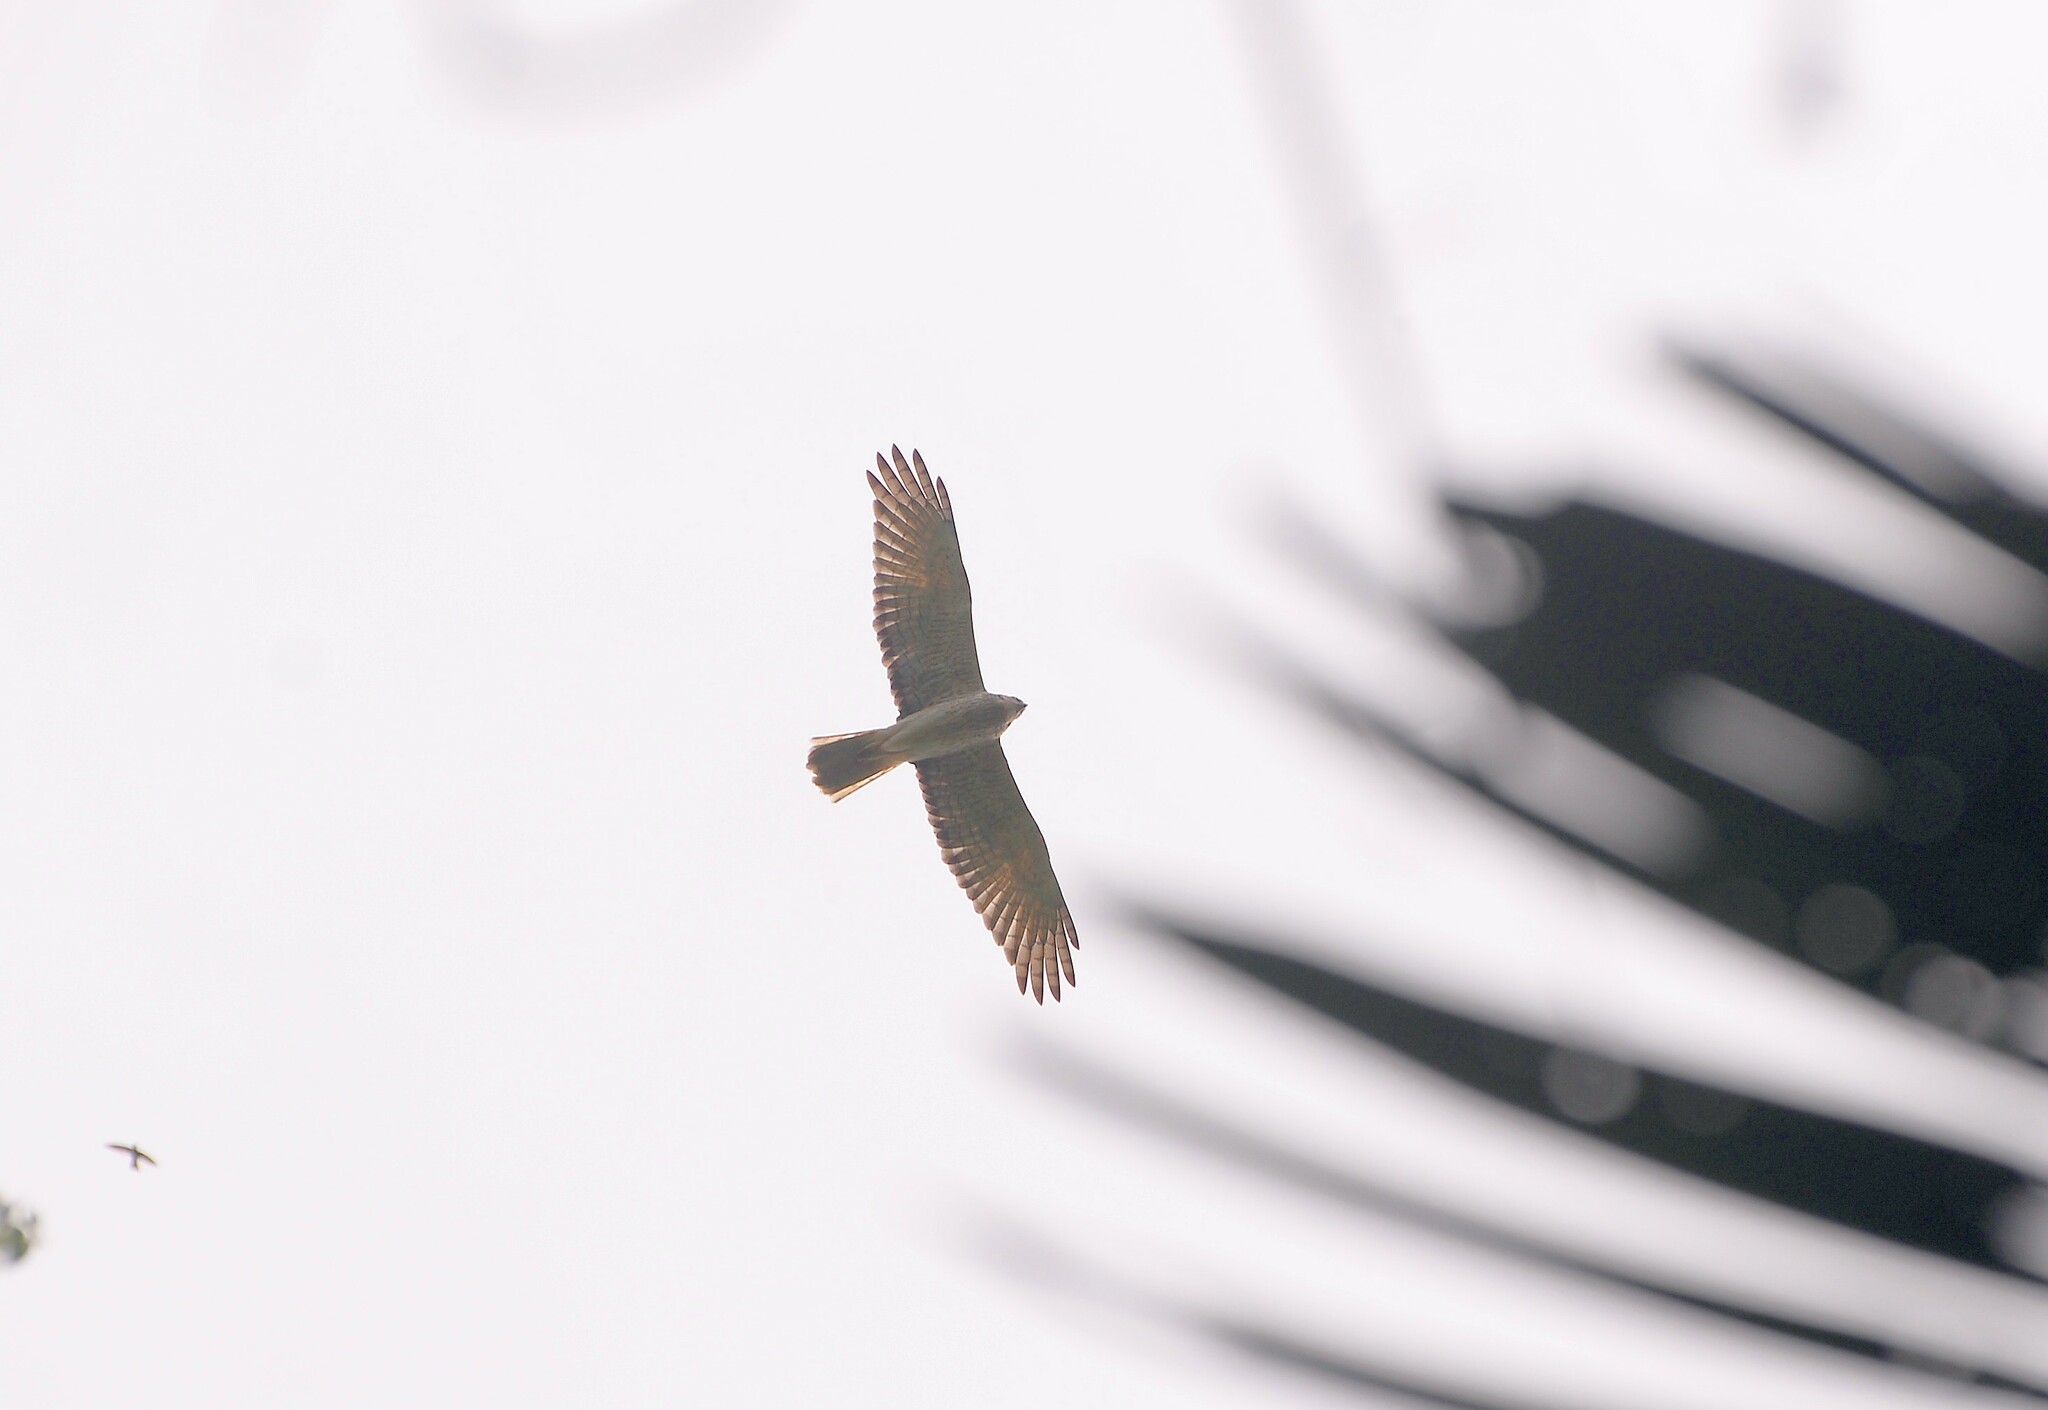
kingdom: Animalia
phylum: Chordata
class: Aves
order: Accipitriformes
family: Accipitridae
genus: Circus
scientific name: Circus approximans
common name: Swamp harrier
